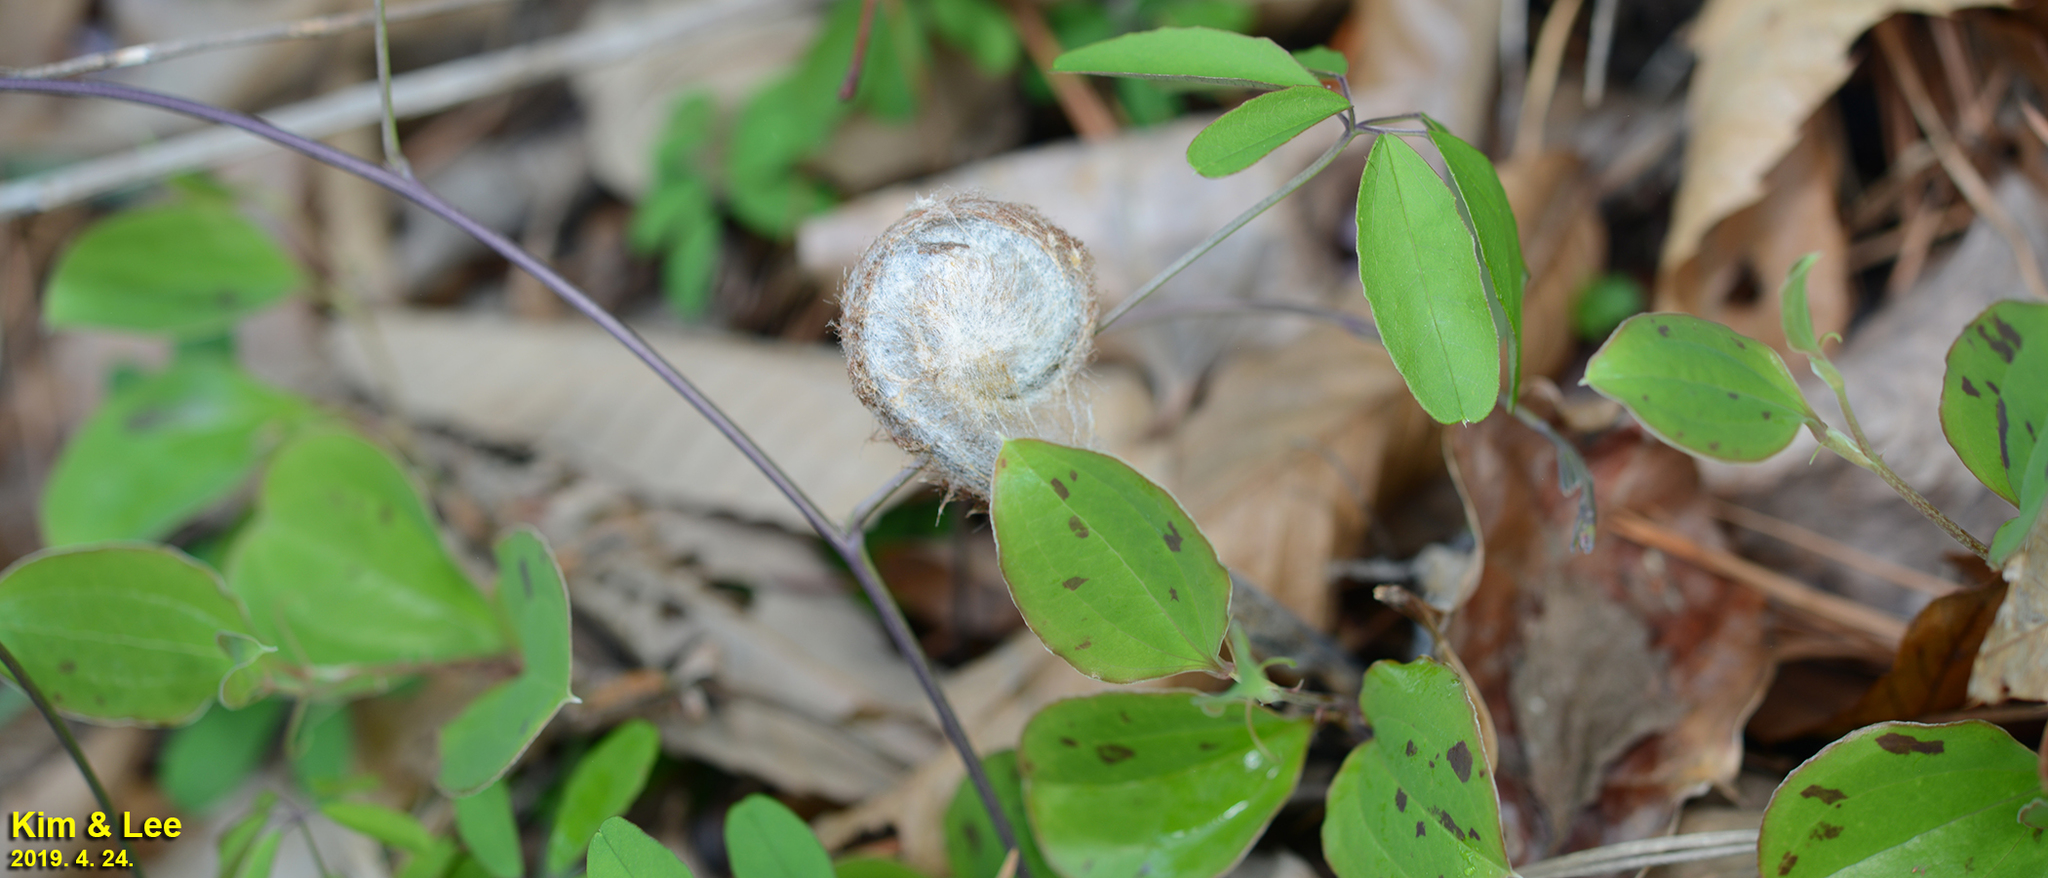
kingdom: Plantae
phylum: Tracheophyta
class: Polypodiopsida
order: Osmundales
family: Osmundaceae
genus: Osmunda
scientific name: Osmunda japonica
